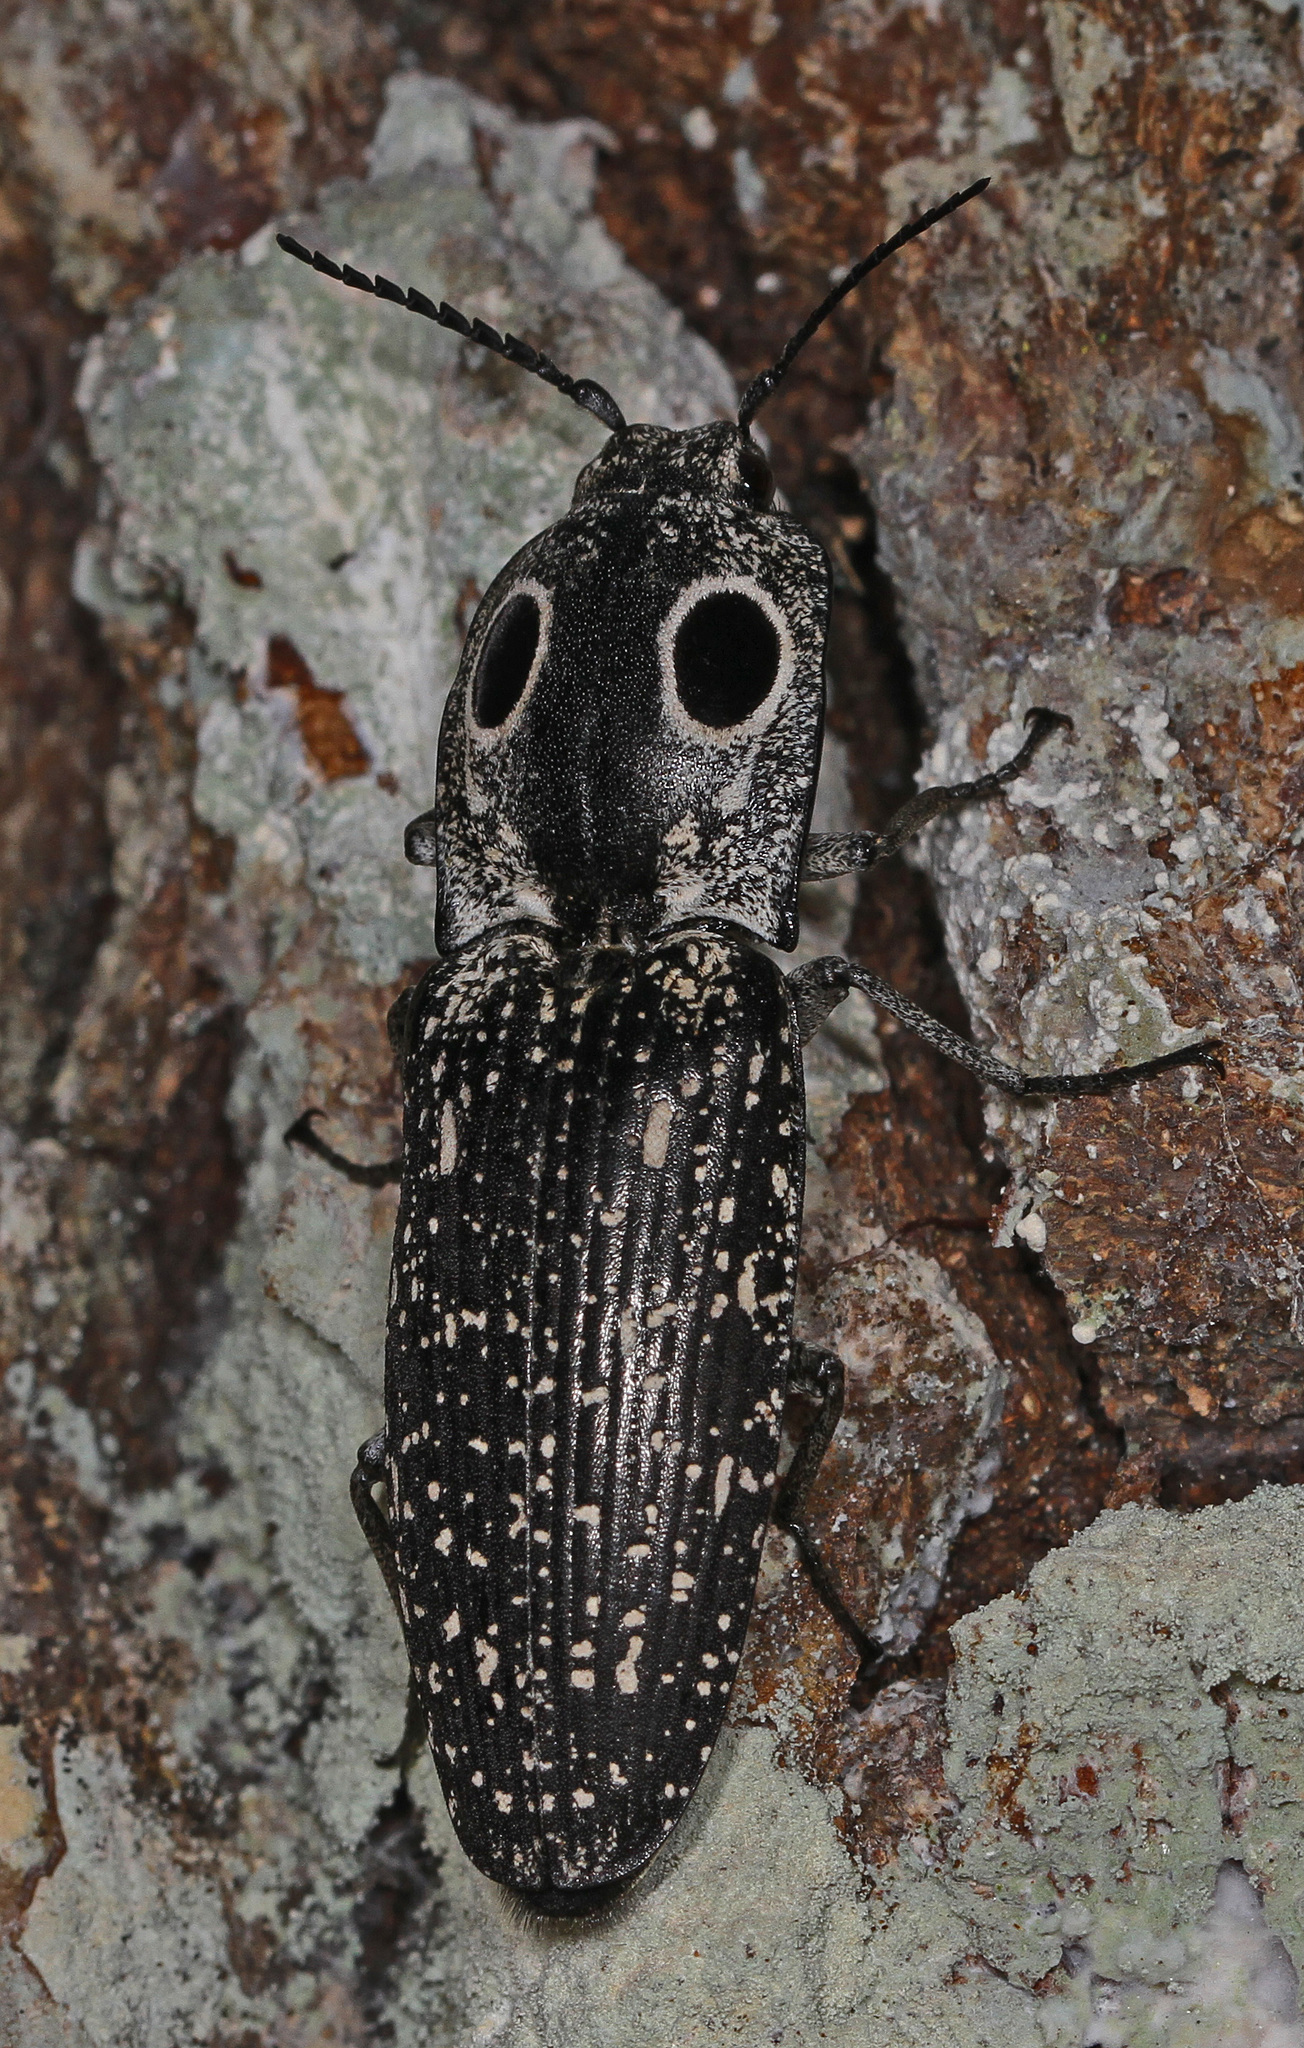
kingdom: Animalia
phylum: Arthropoda
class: Insecta
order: Coleoptera
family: Elateridae
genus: Alaus
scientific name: Alaus oculatus
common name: Eastern eyed click beetle
